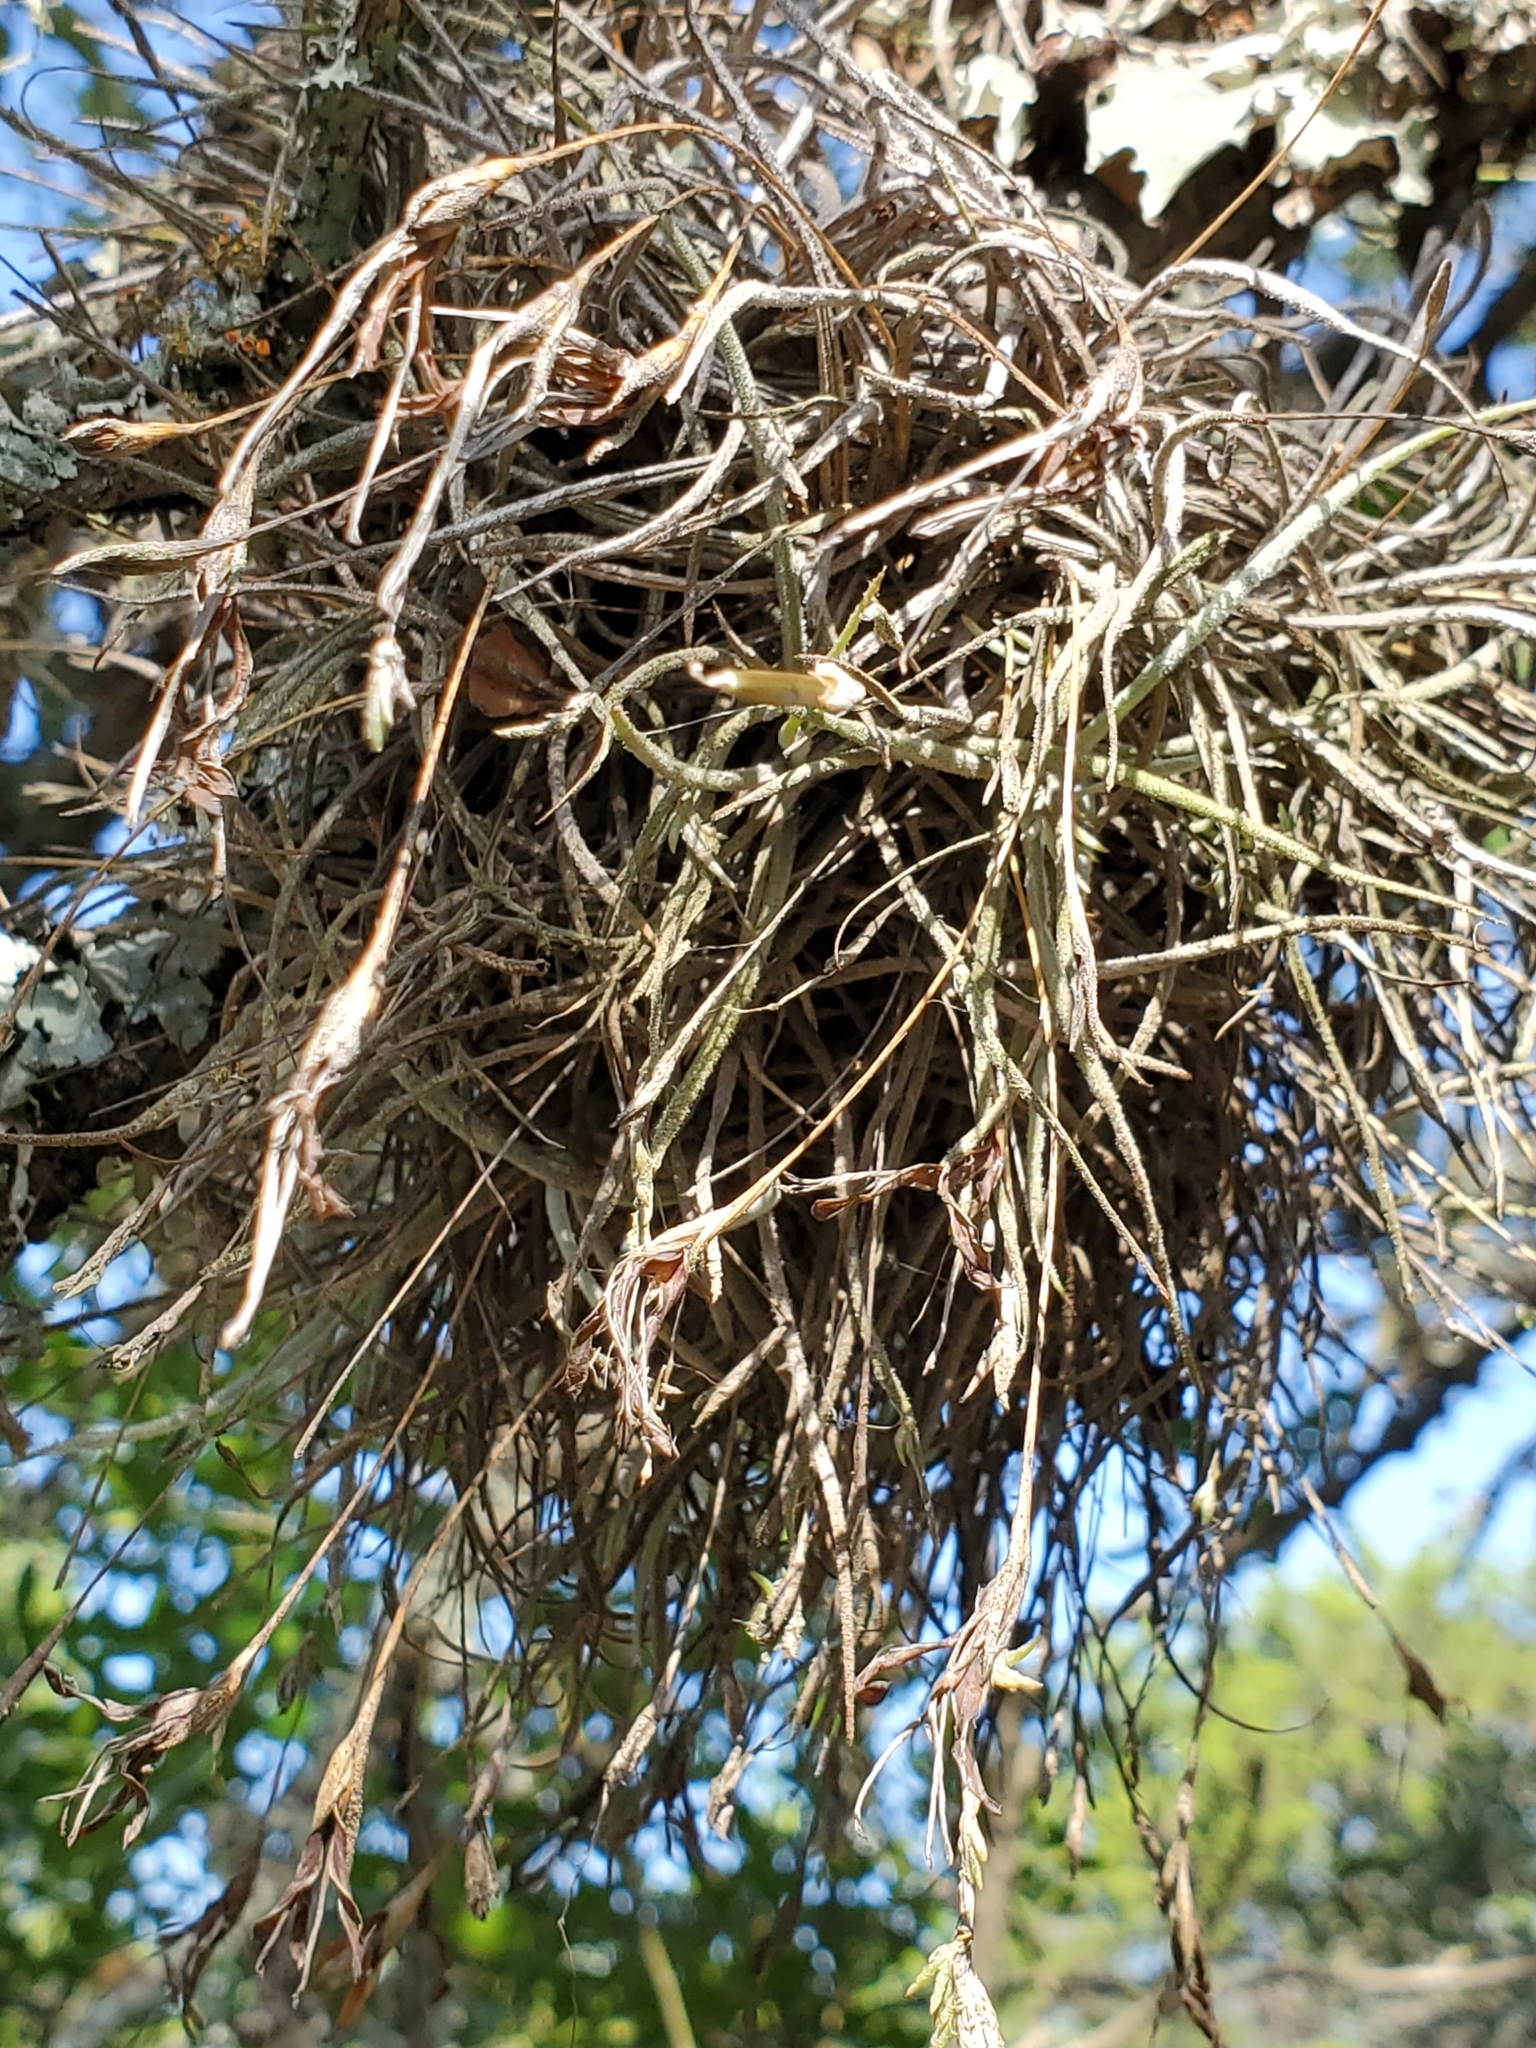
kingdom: Plantae
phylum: Tracheophyta
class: Liliopsida
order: Poales
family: Bromeliaceae
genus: Tillandsia
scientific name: Tillandsia recurvata
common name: Small ballmoss
